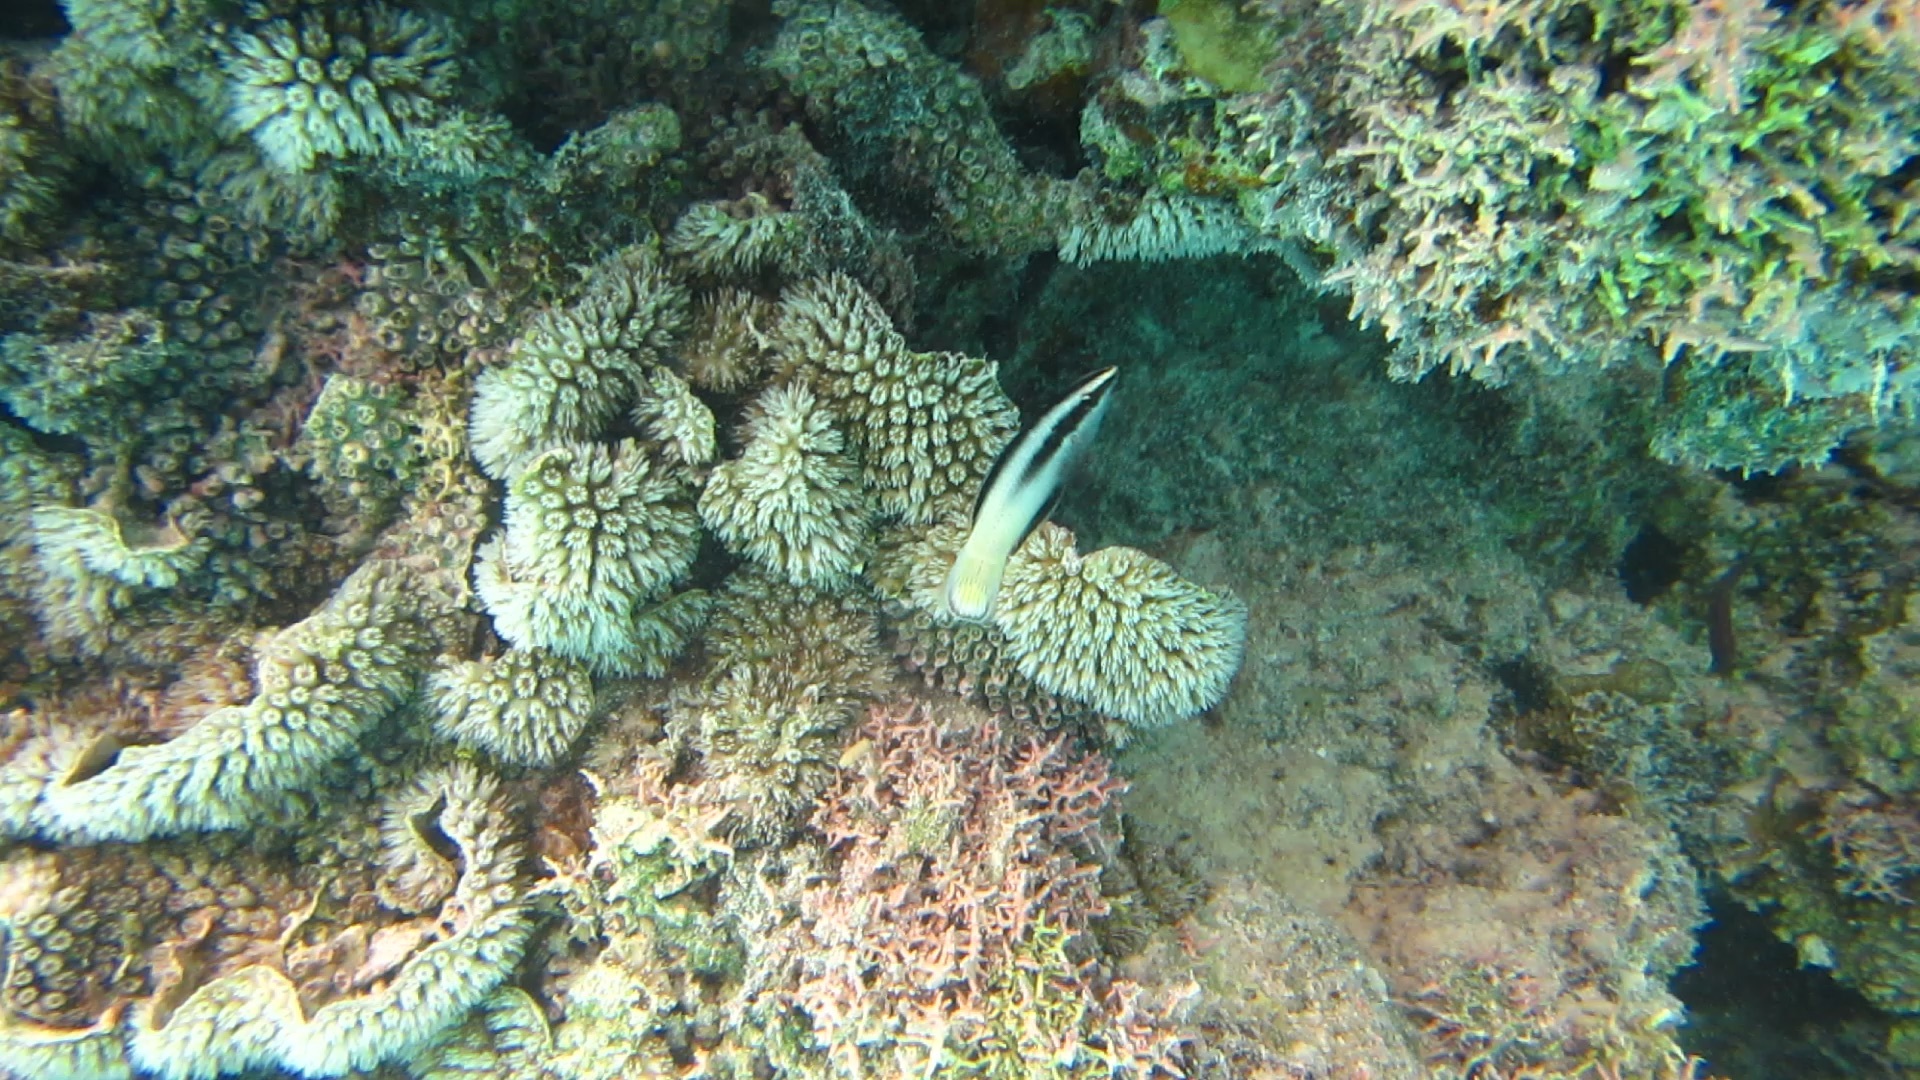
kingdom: Animalia
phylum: Chordata
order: Perciformes
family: Labridae
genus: Labroides
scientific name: Labroides bicolor
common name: Bicolor cleaner wrasse
